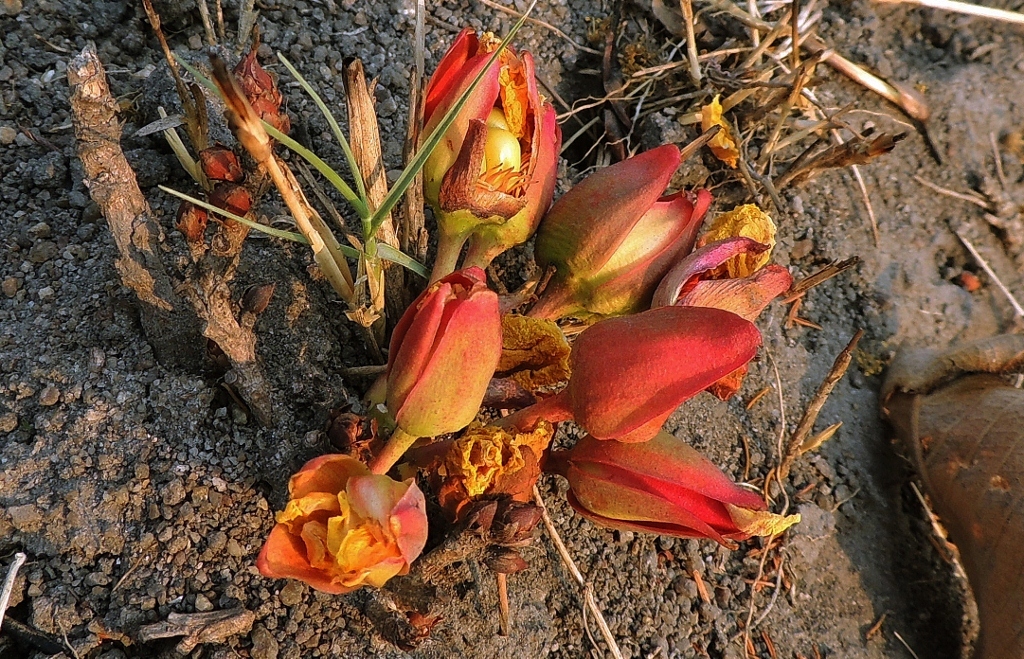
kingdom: Plantae
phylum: Tracheophyta
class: Magnoliopsida
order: Malpighiales
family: Ochnaceae
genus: Ochna
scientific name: Ochna macrocalyx
